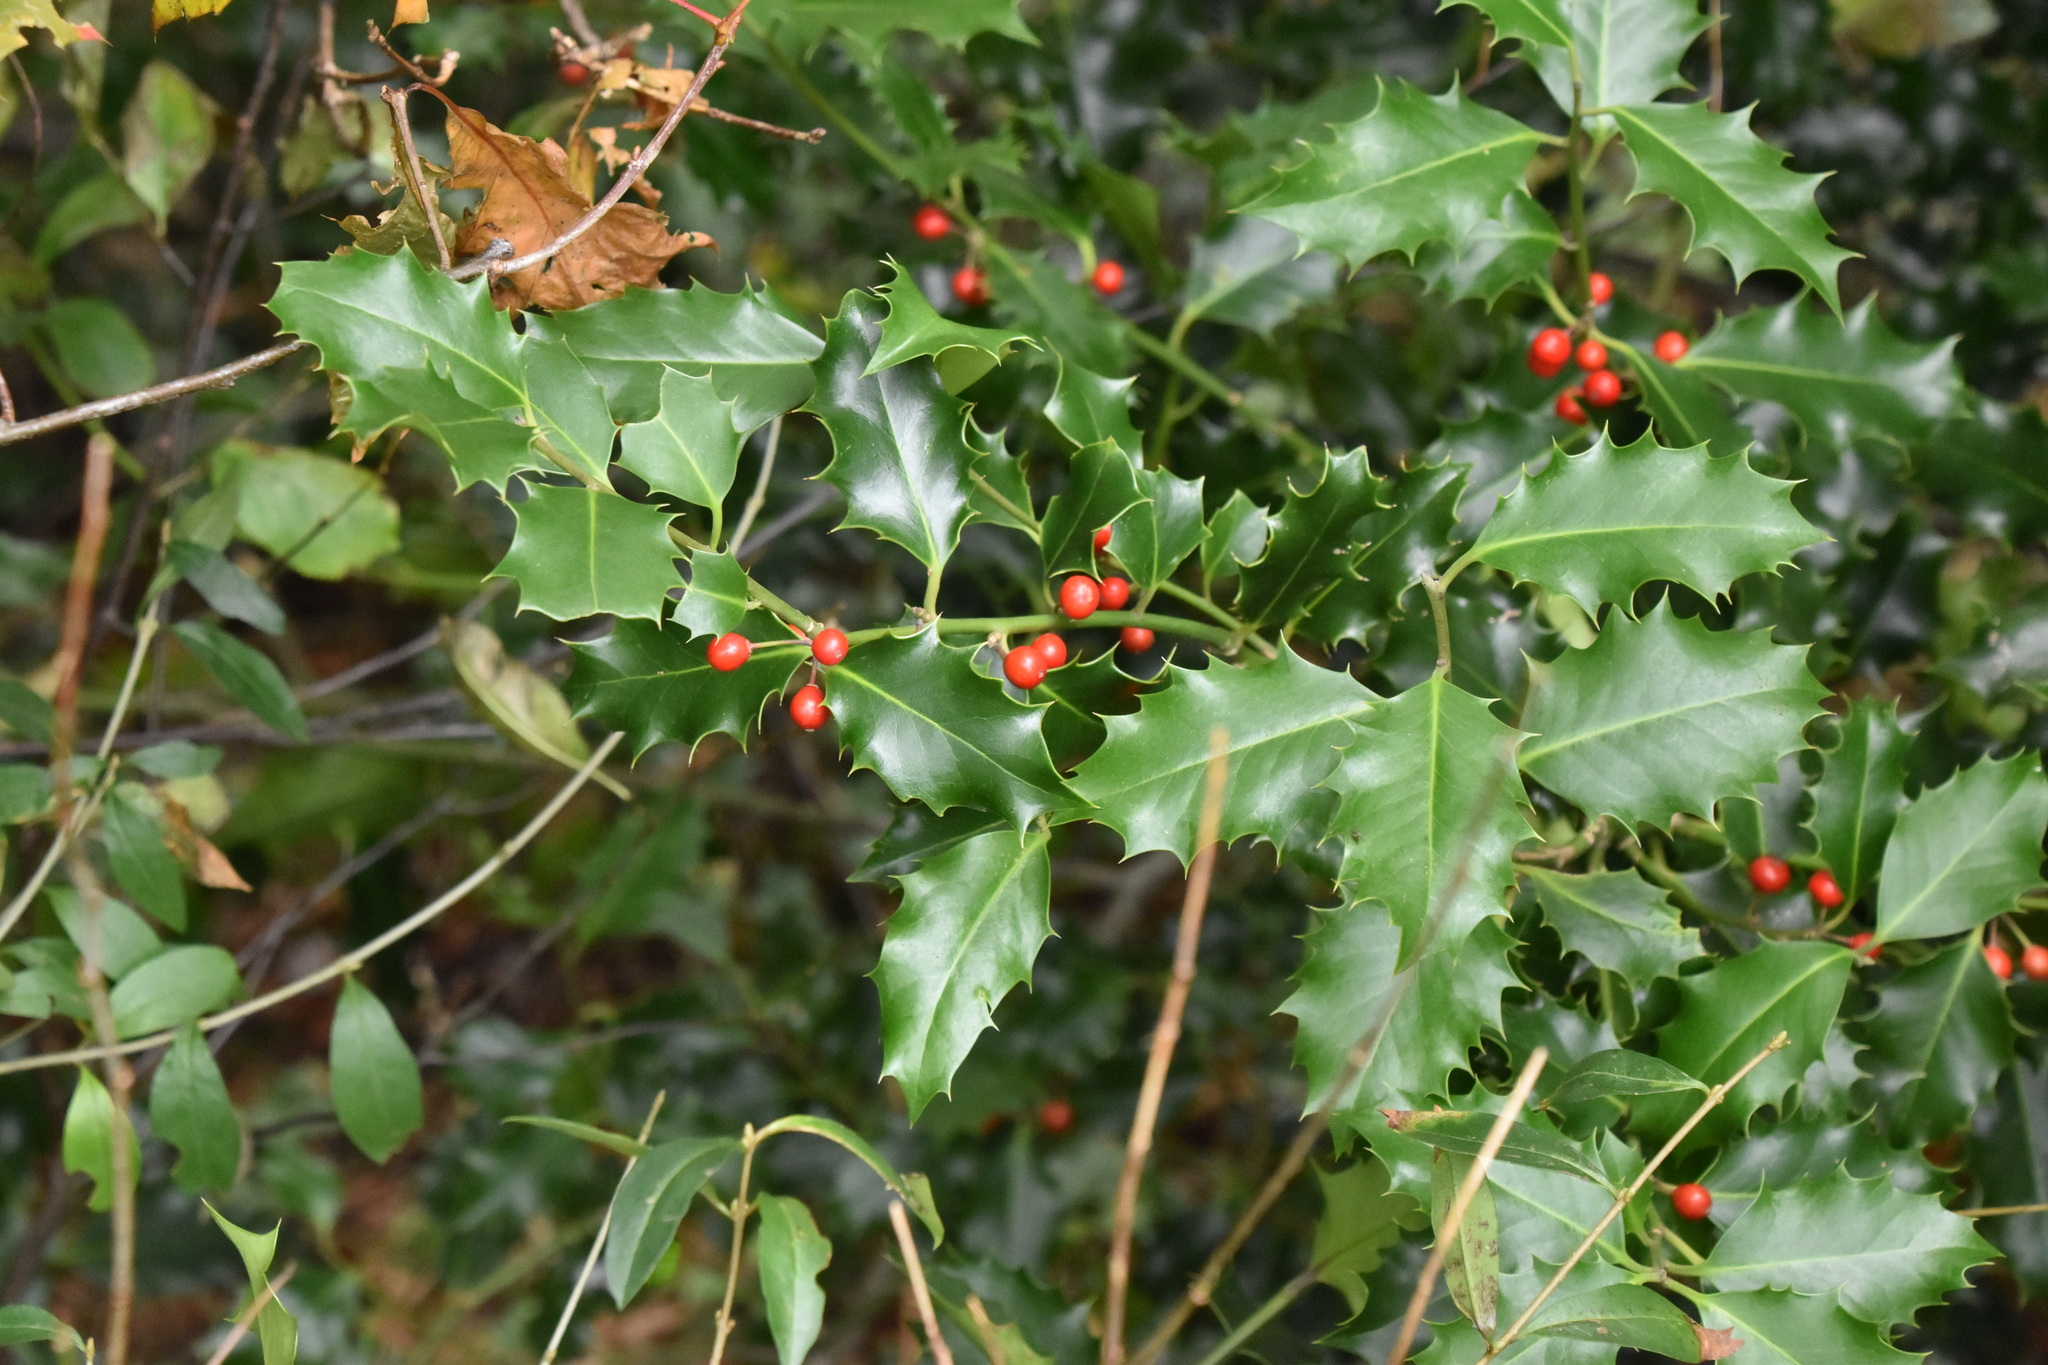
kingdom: Plantae
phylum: Tracheophyta
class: Magnoliopsida
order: Aquifoliales
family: Aquifoliaceae
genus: Ilex
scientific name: Ilex aquifolium
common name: English holly
